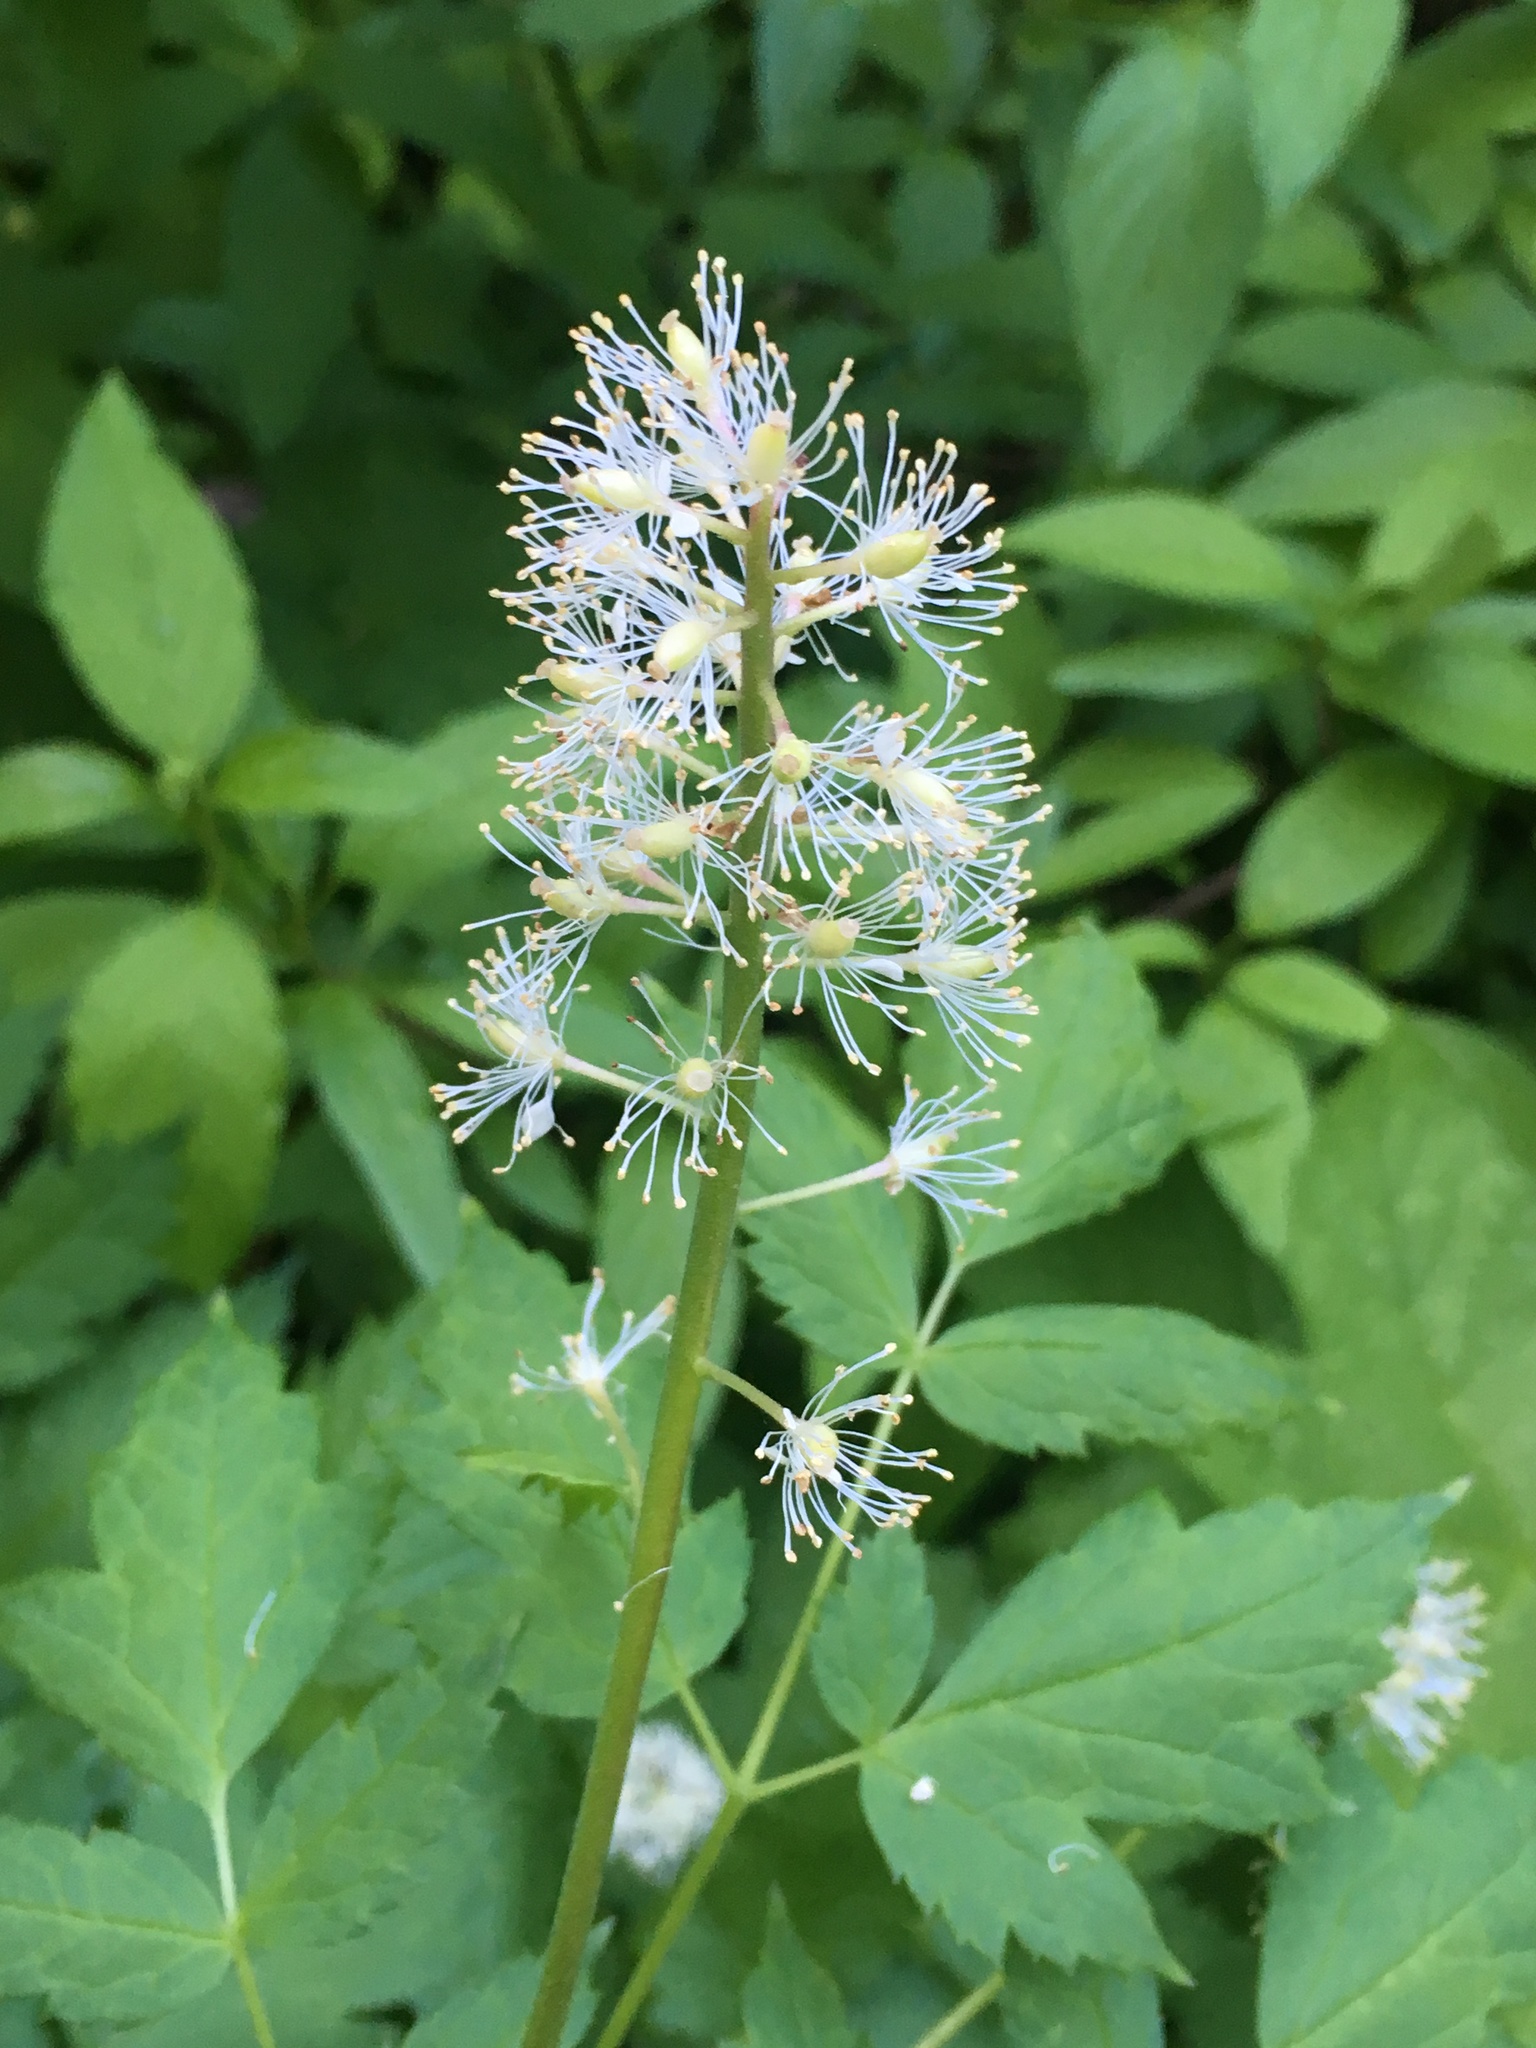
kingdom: Plantae
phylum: Tracheophyta
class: Magnoliopsida
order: Ranunculales
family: Ranunculaceae
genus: Actaea
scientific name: Actaea rubra
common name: Red baneberry
